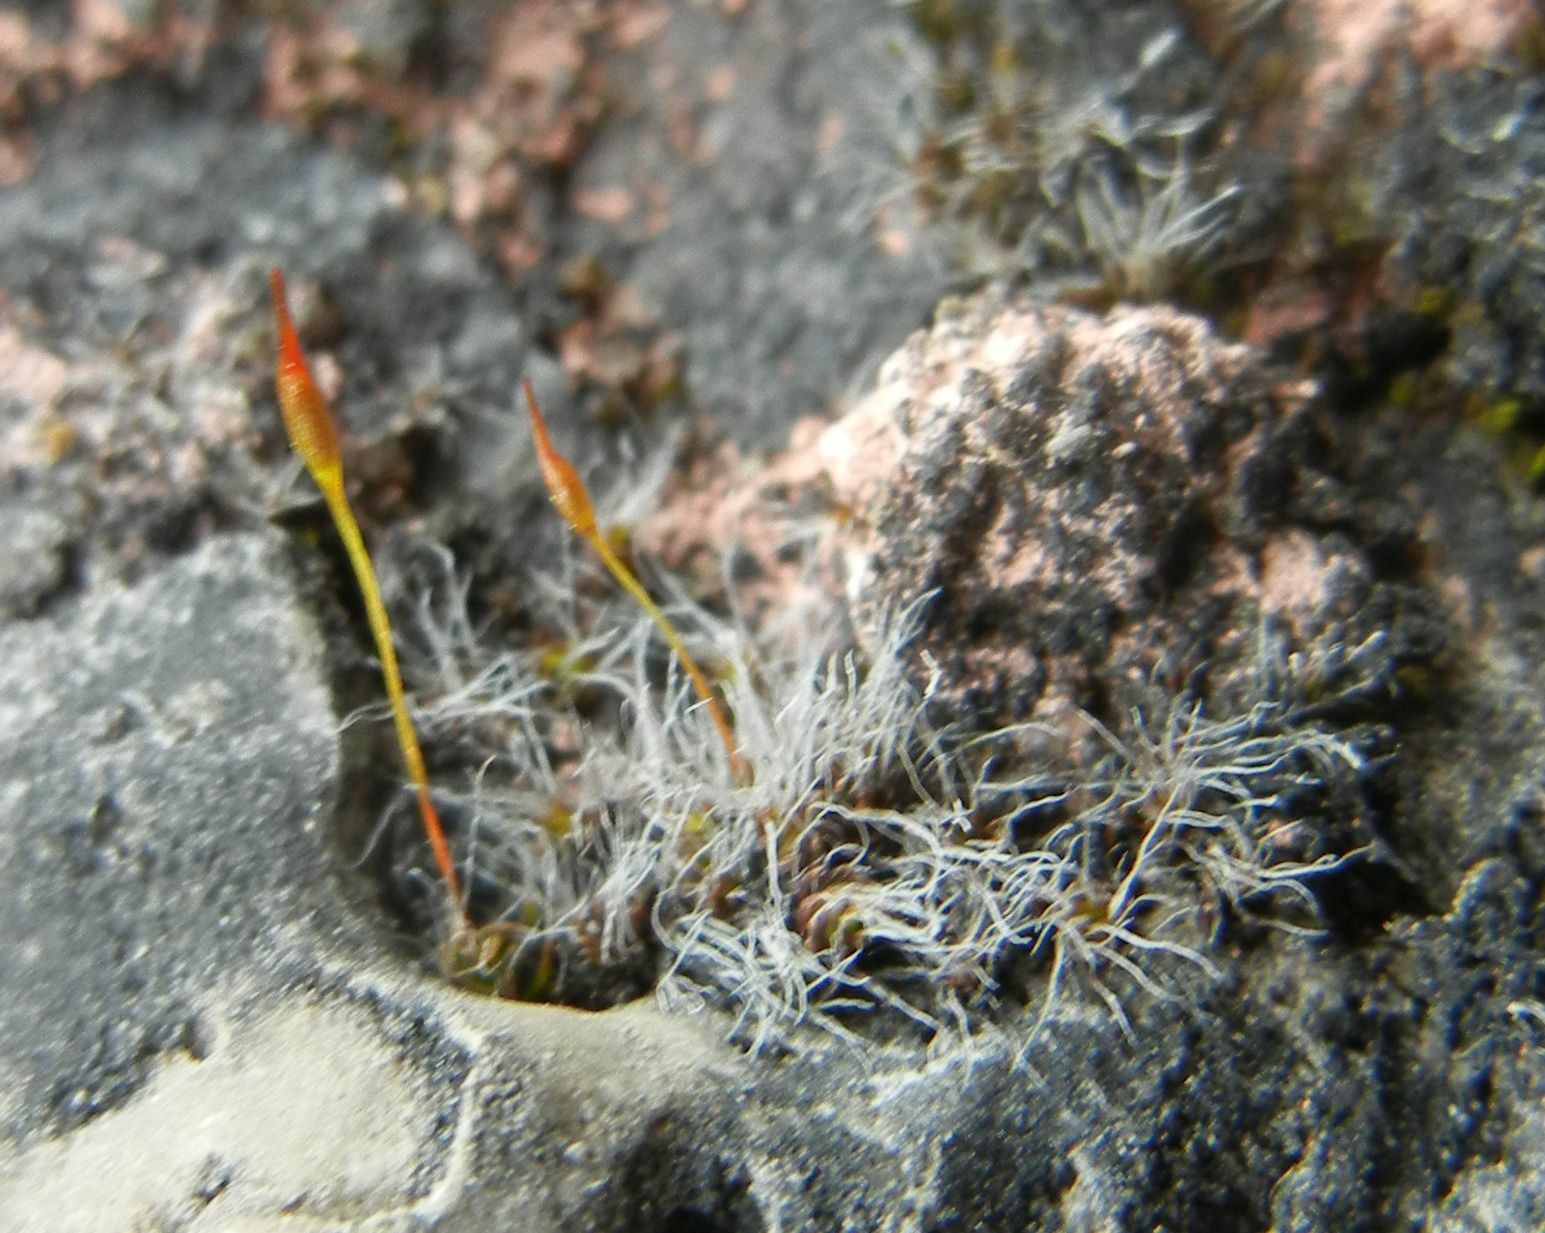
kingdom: Plantae
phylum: Bryophyta
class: Bryopsida
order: Pottiales
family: Pottiaceae
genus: Tortula
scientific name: Tortula muralis
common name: Wall screw-moss
